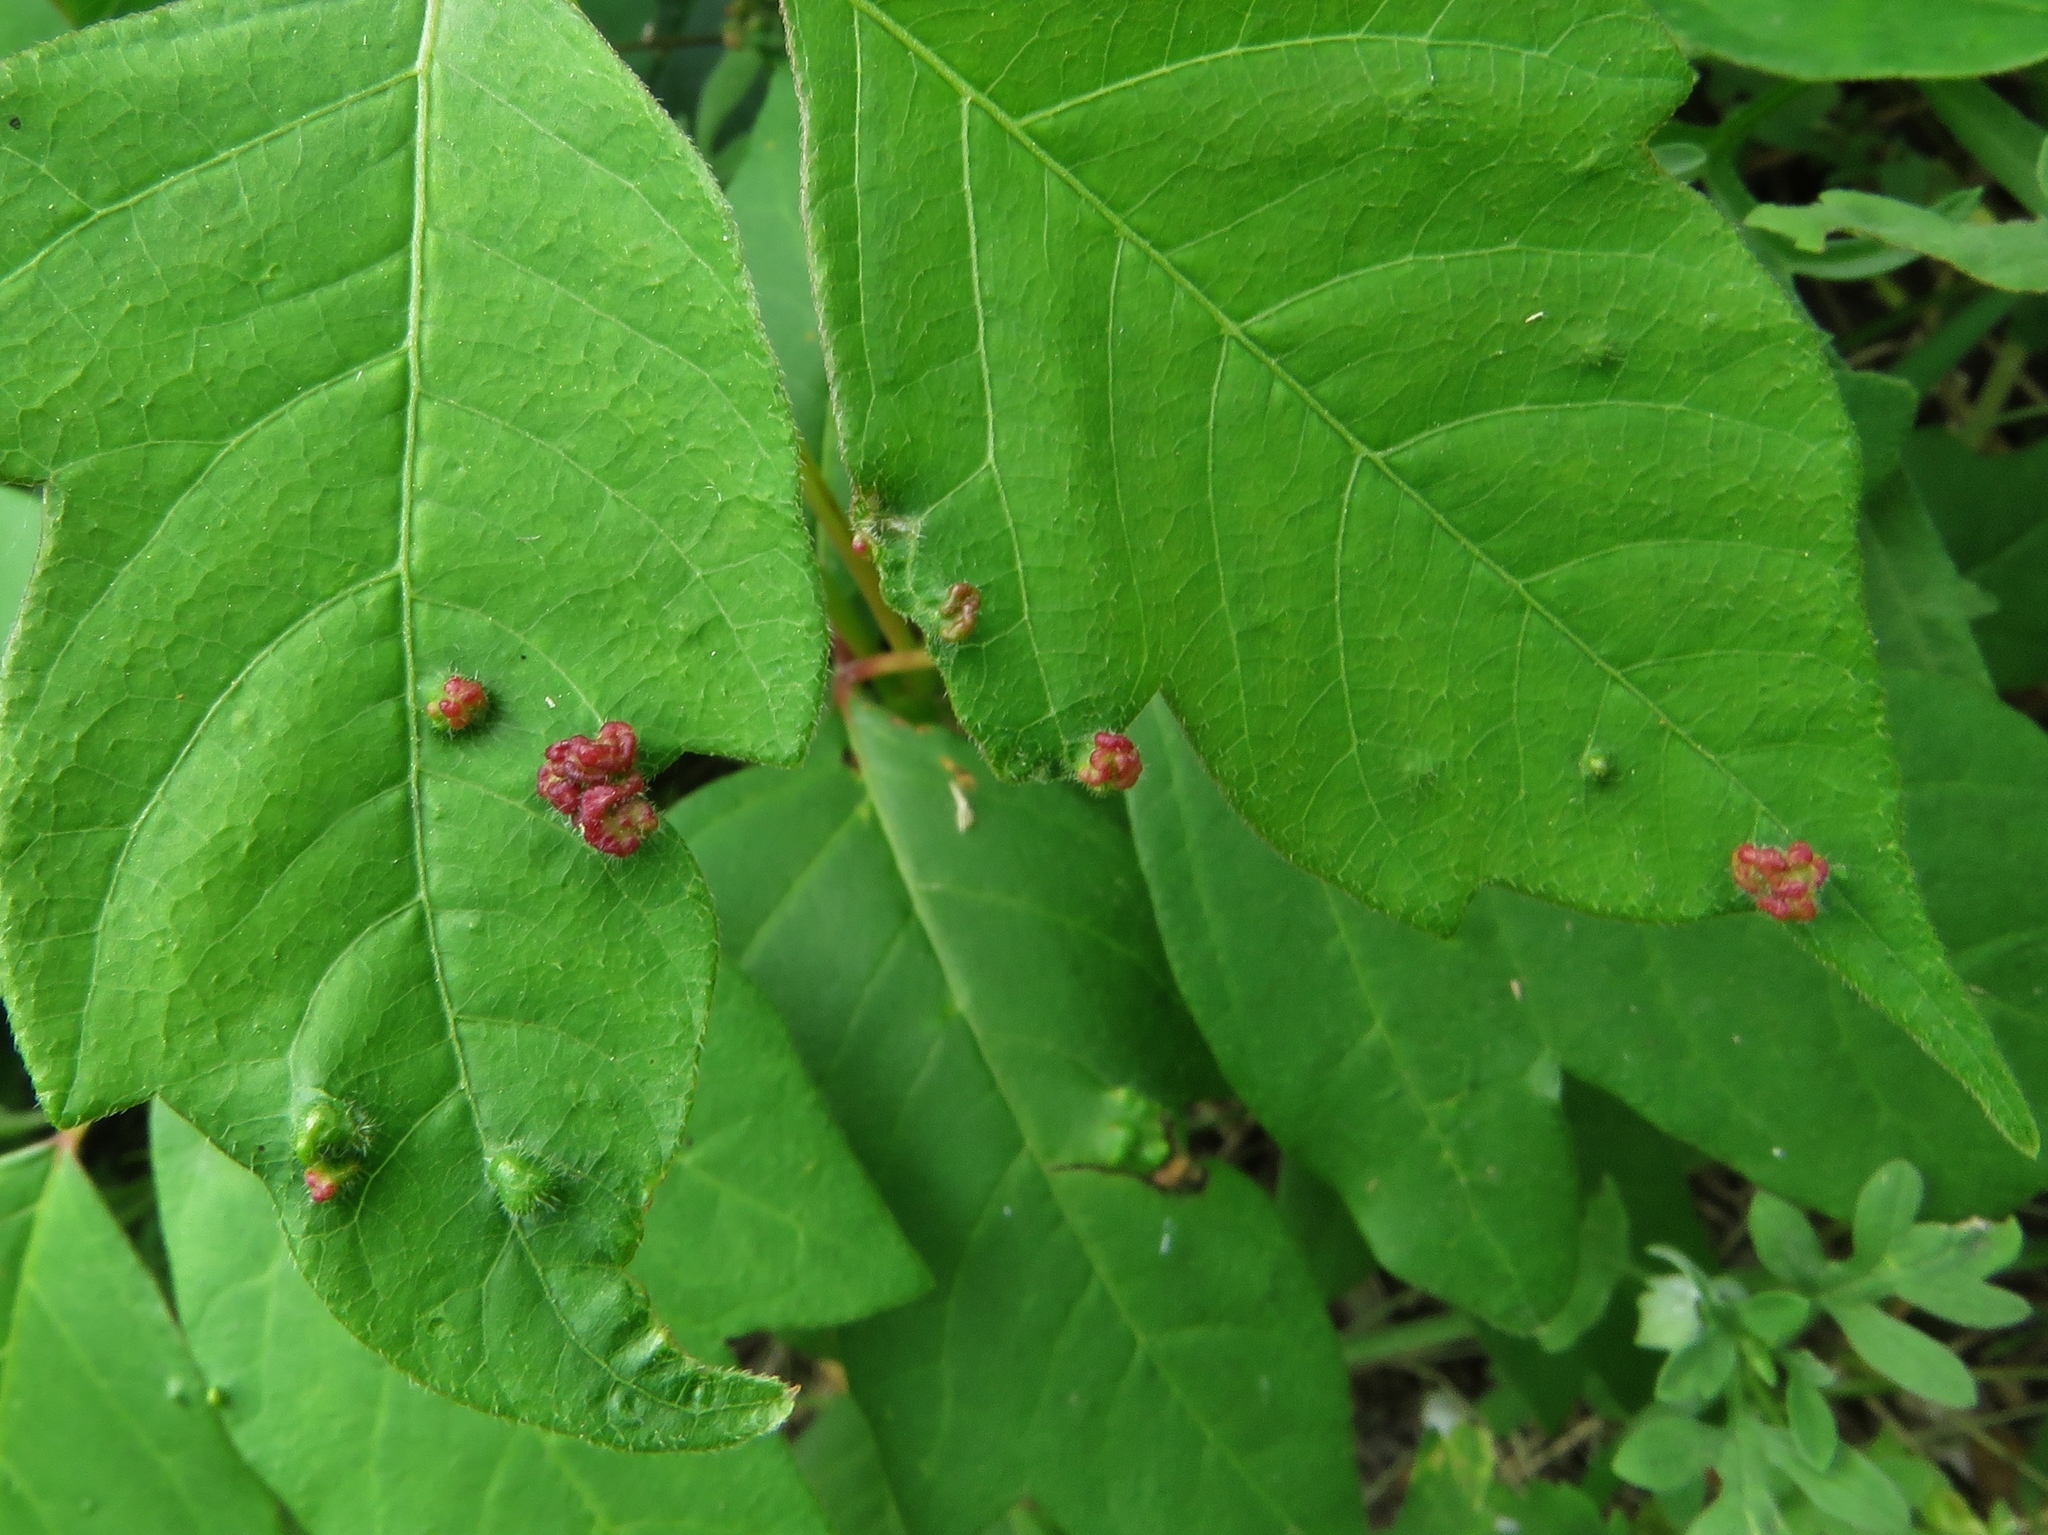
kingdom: Animalia
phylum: Arthropoda
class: Arachnida
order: Trombidiformes
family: Eriophyidae
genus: Aculops
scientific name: Aculops
